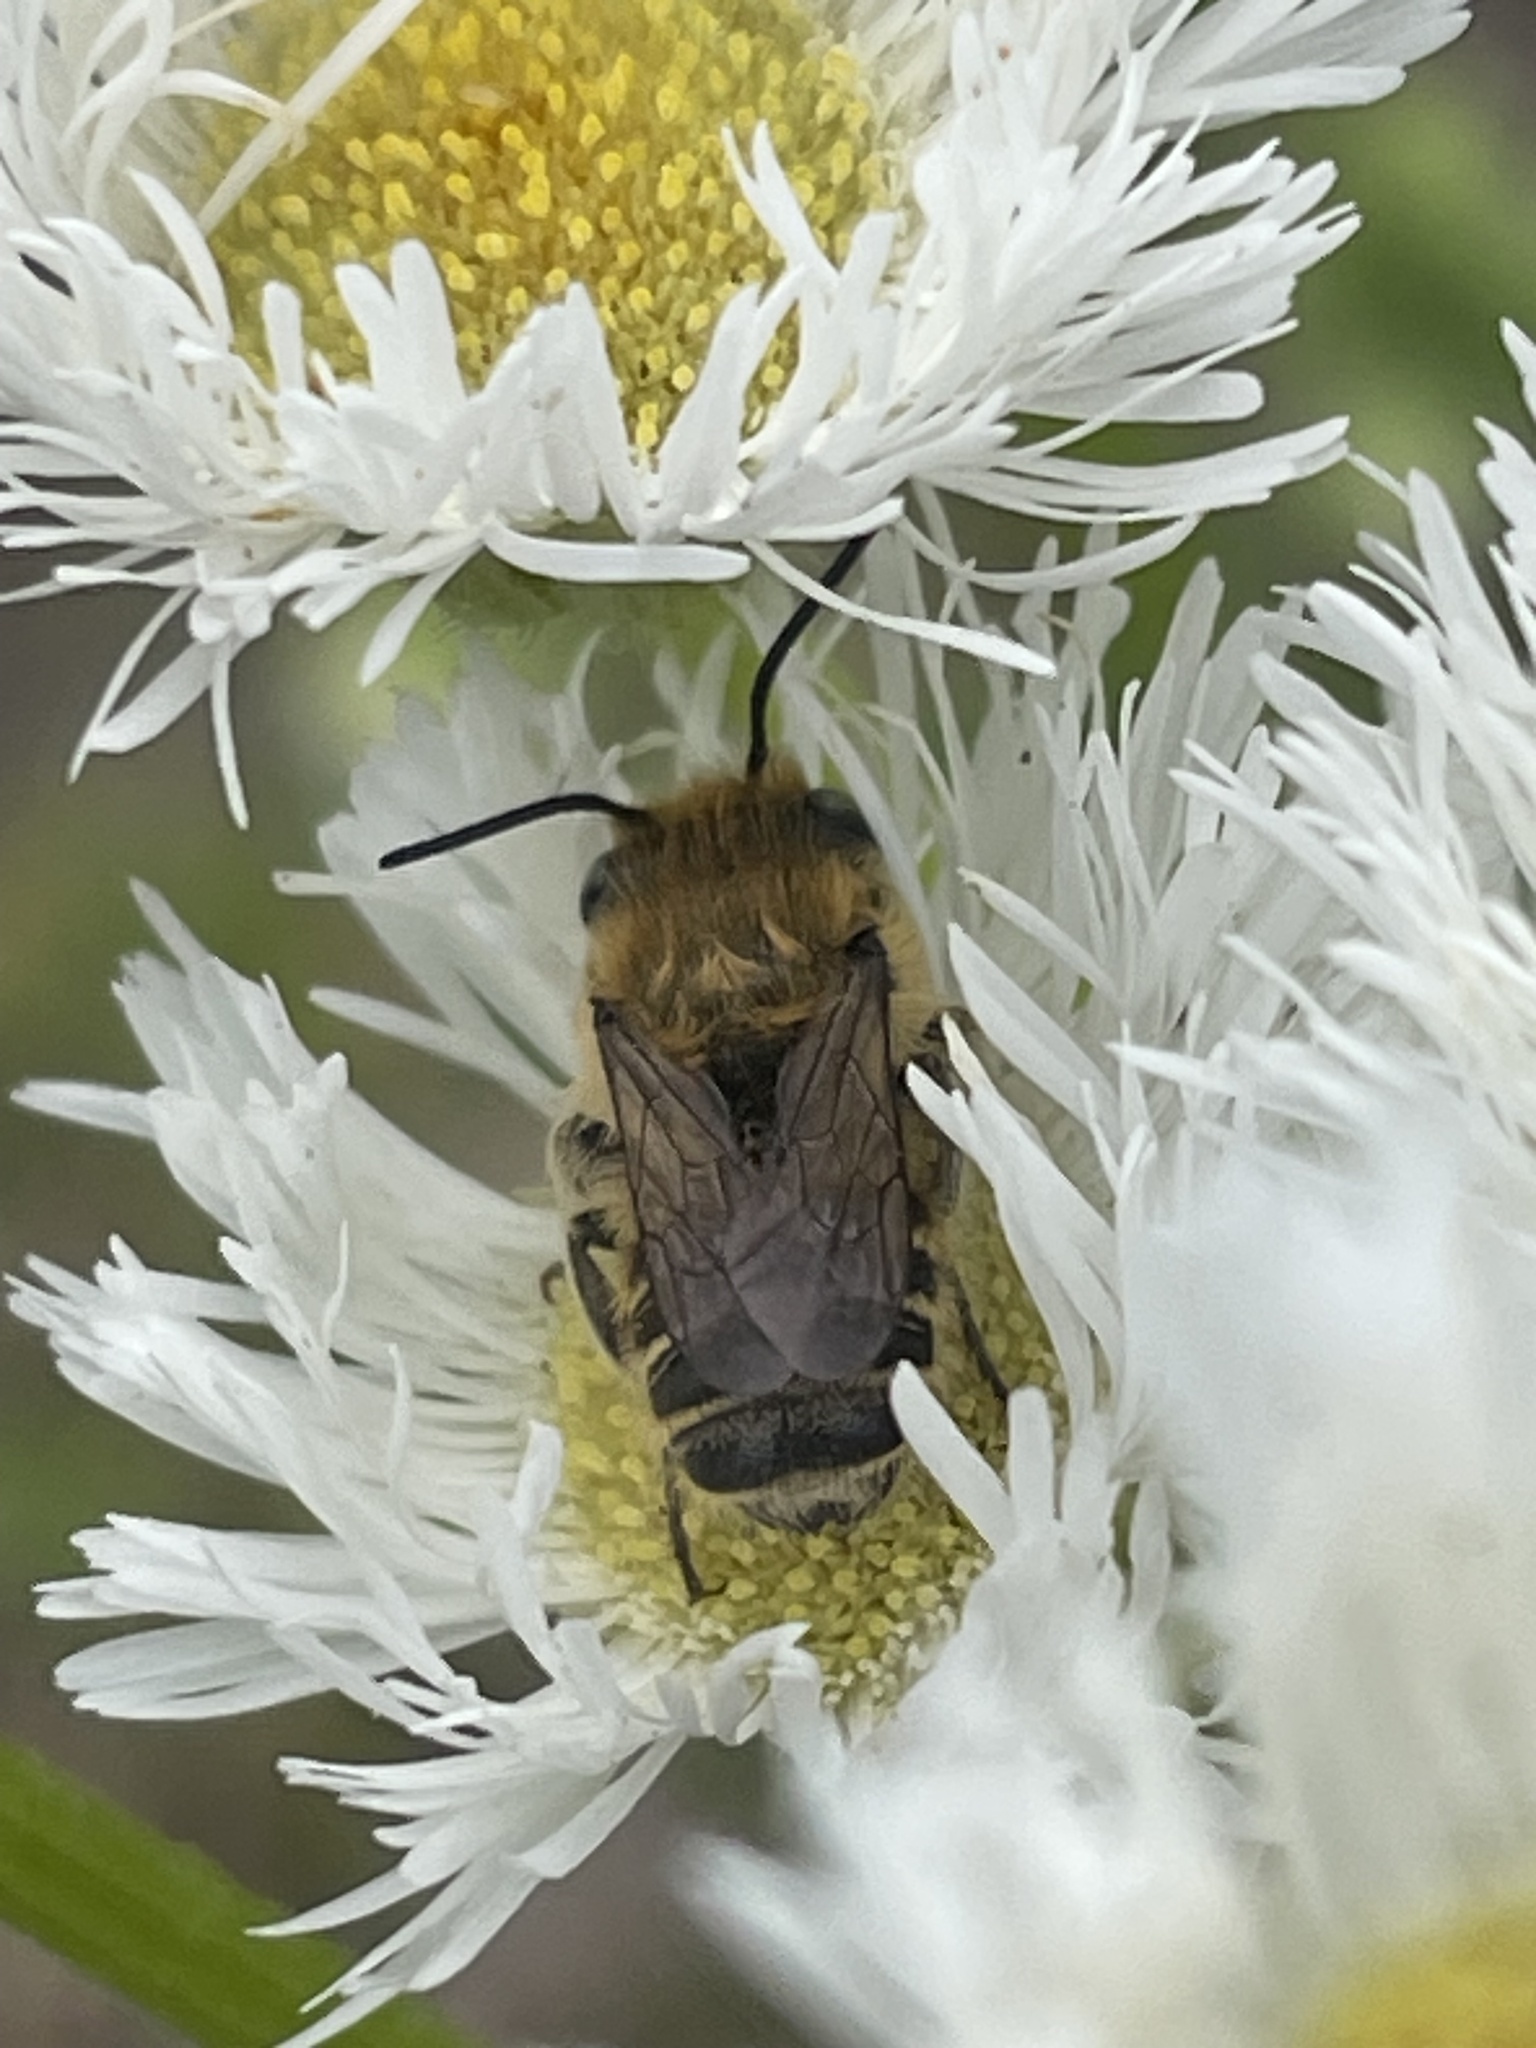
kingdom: Animalia
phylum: Arthropoda
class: Insecta
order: Hymenoptera
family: Megachilidae
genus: Megachile
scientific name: Megachile rotundata
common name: Alfalfa leafcutting bee
